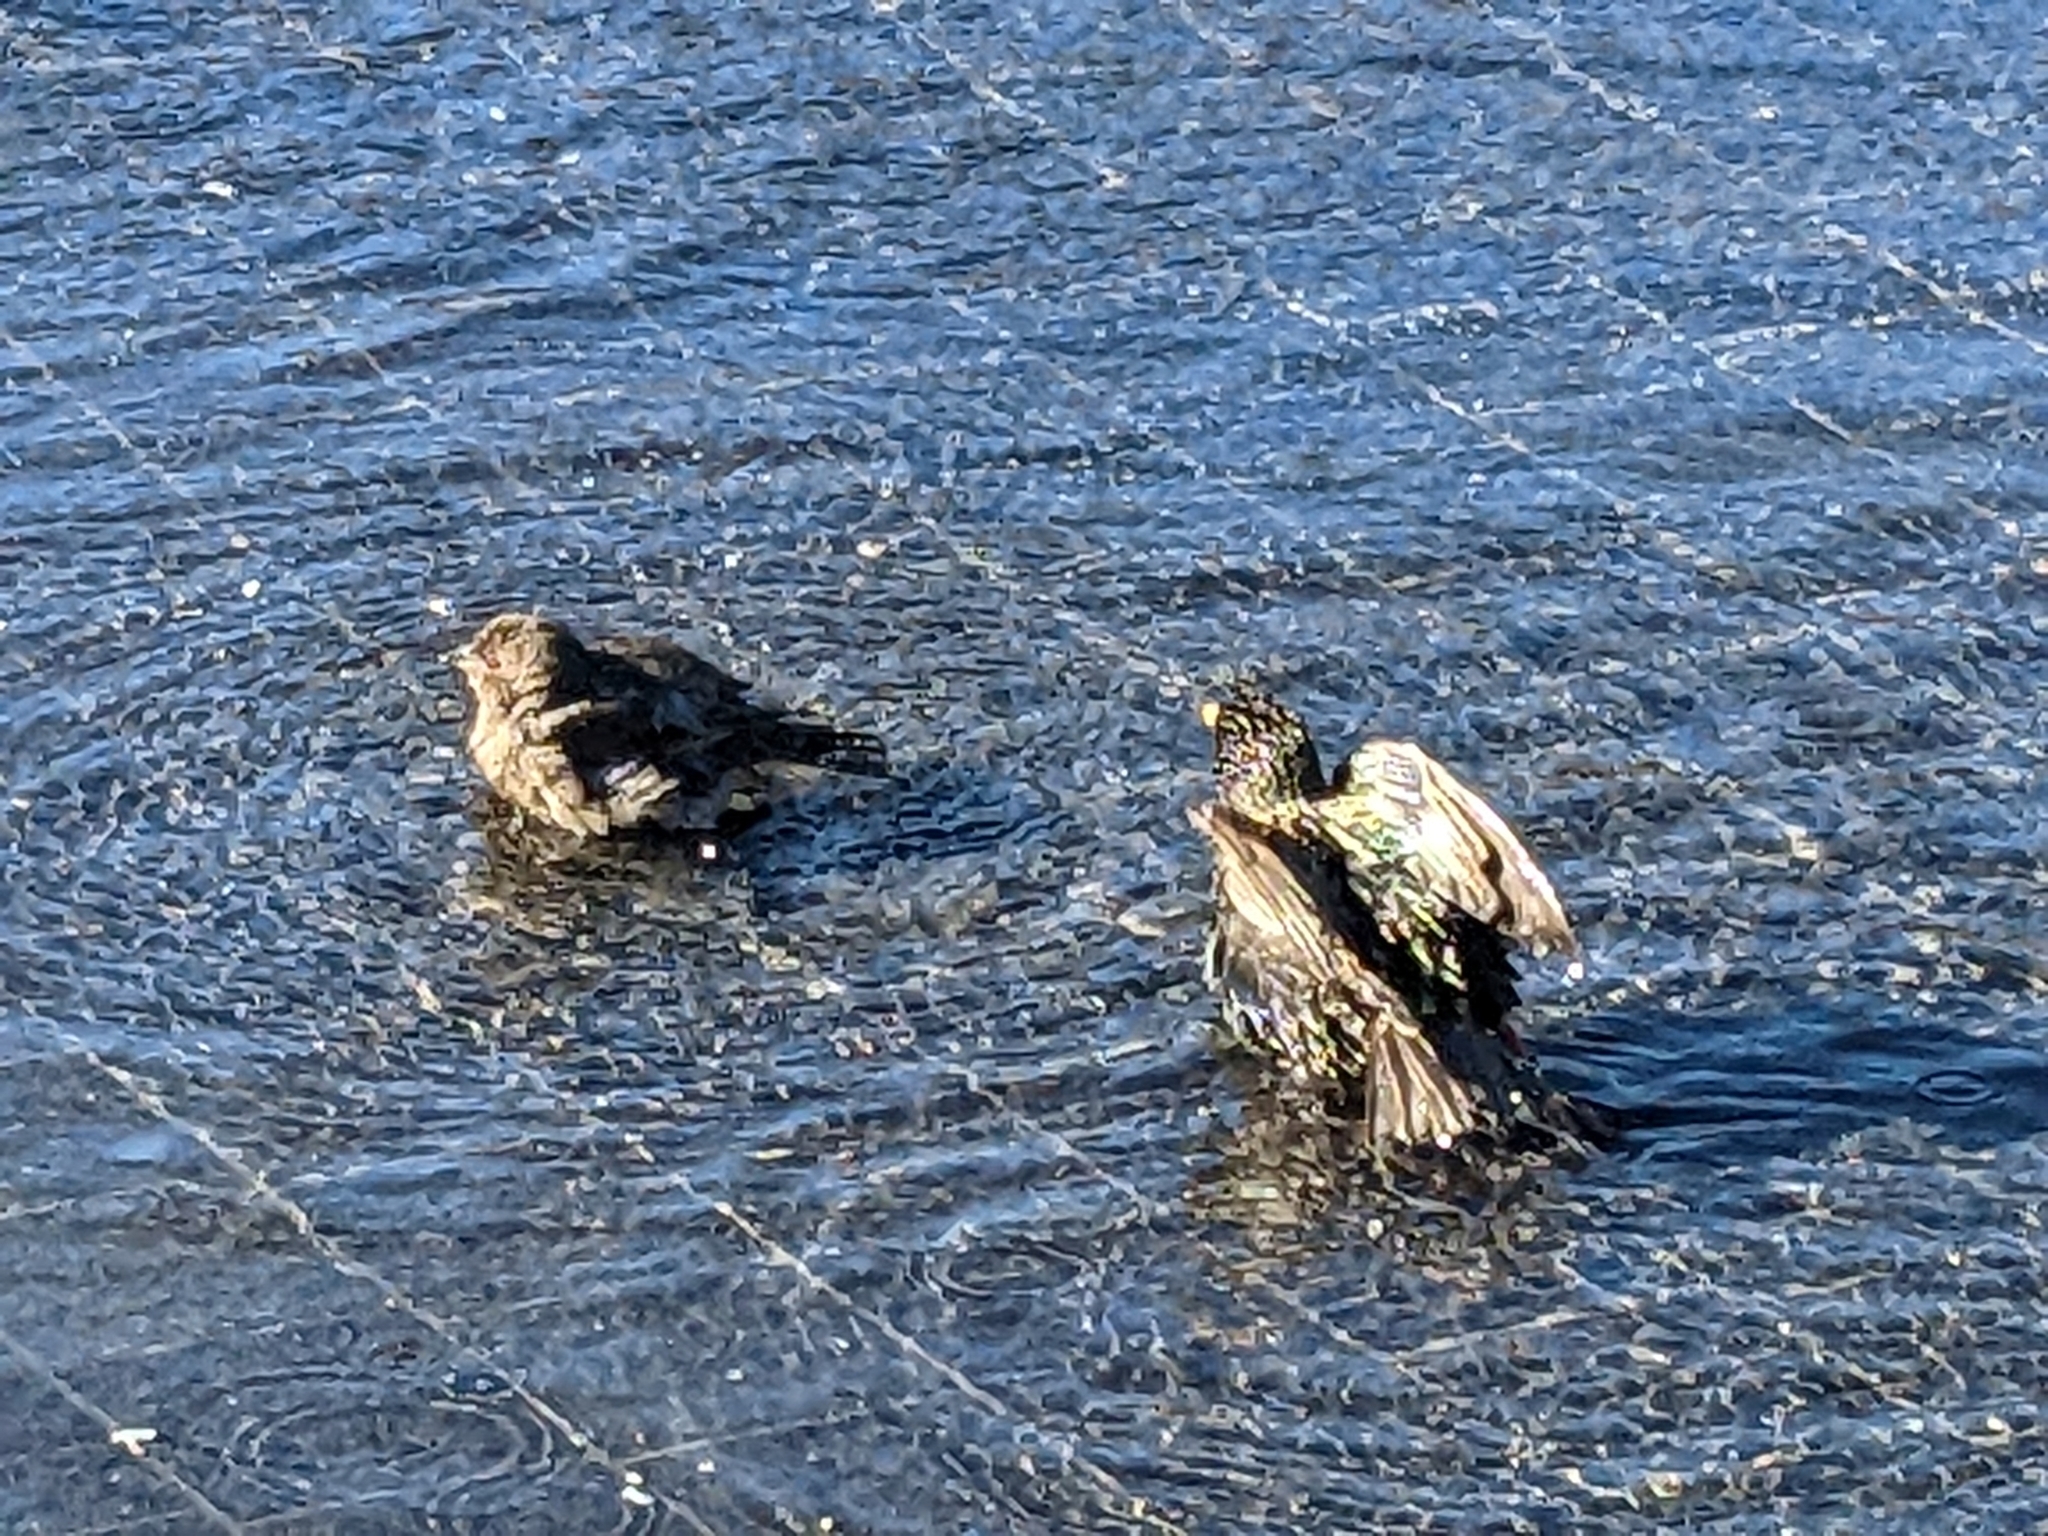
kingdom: Animalia
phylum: Chordata
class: Aves
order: Passeriformes
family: Passeridae
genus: Passer
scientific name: Passer domesticus
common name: House sparrow
